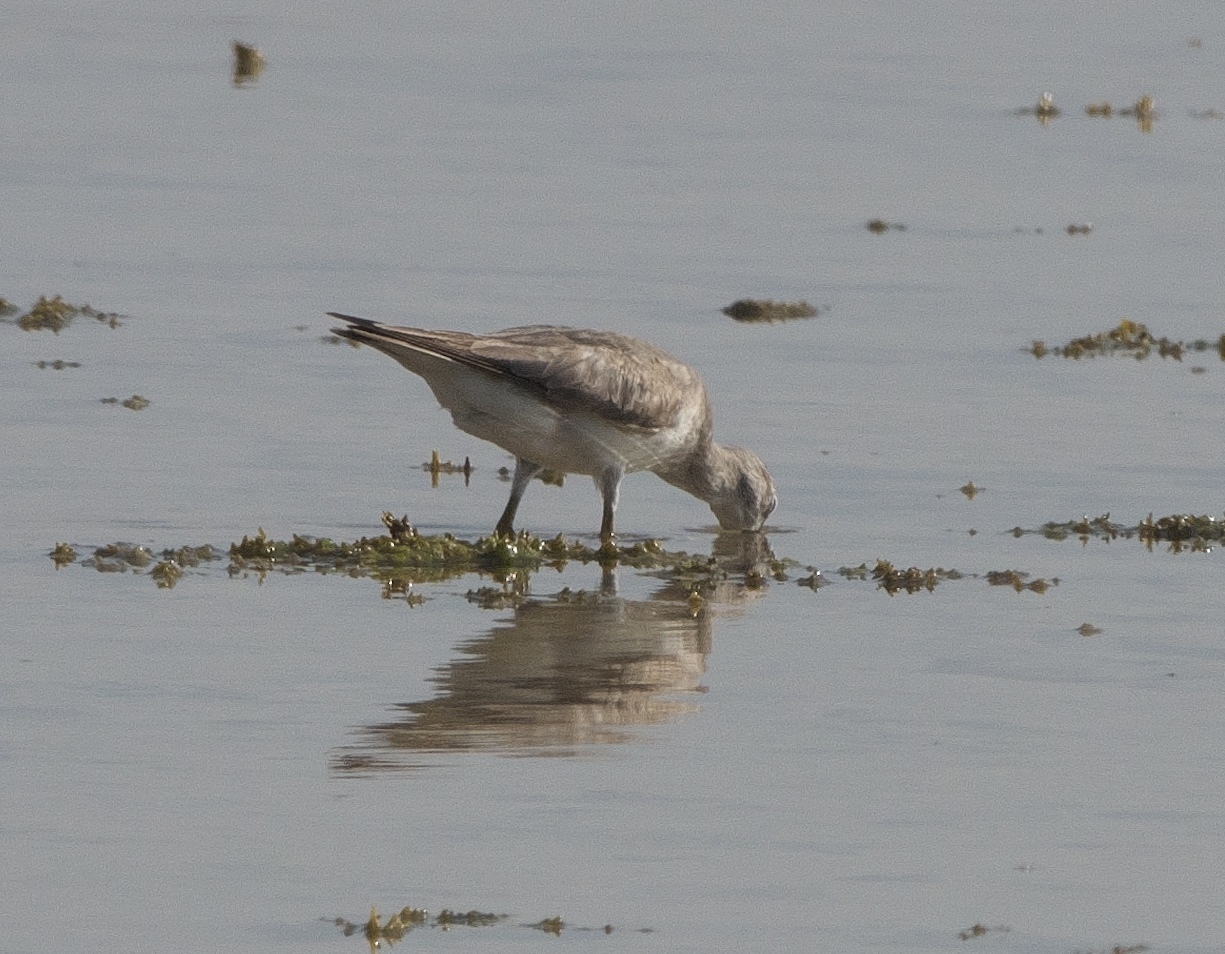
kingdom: Animalia
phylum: Chordata
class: Aves
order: Charadriiformes
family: Scolopacidae
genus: Tringa
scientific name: Tringa brevipes
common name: Grey-tailed tattler
